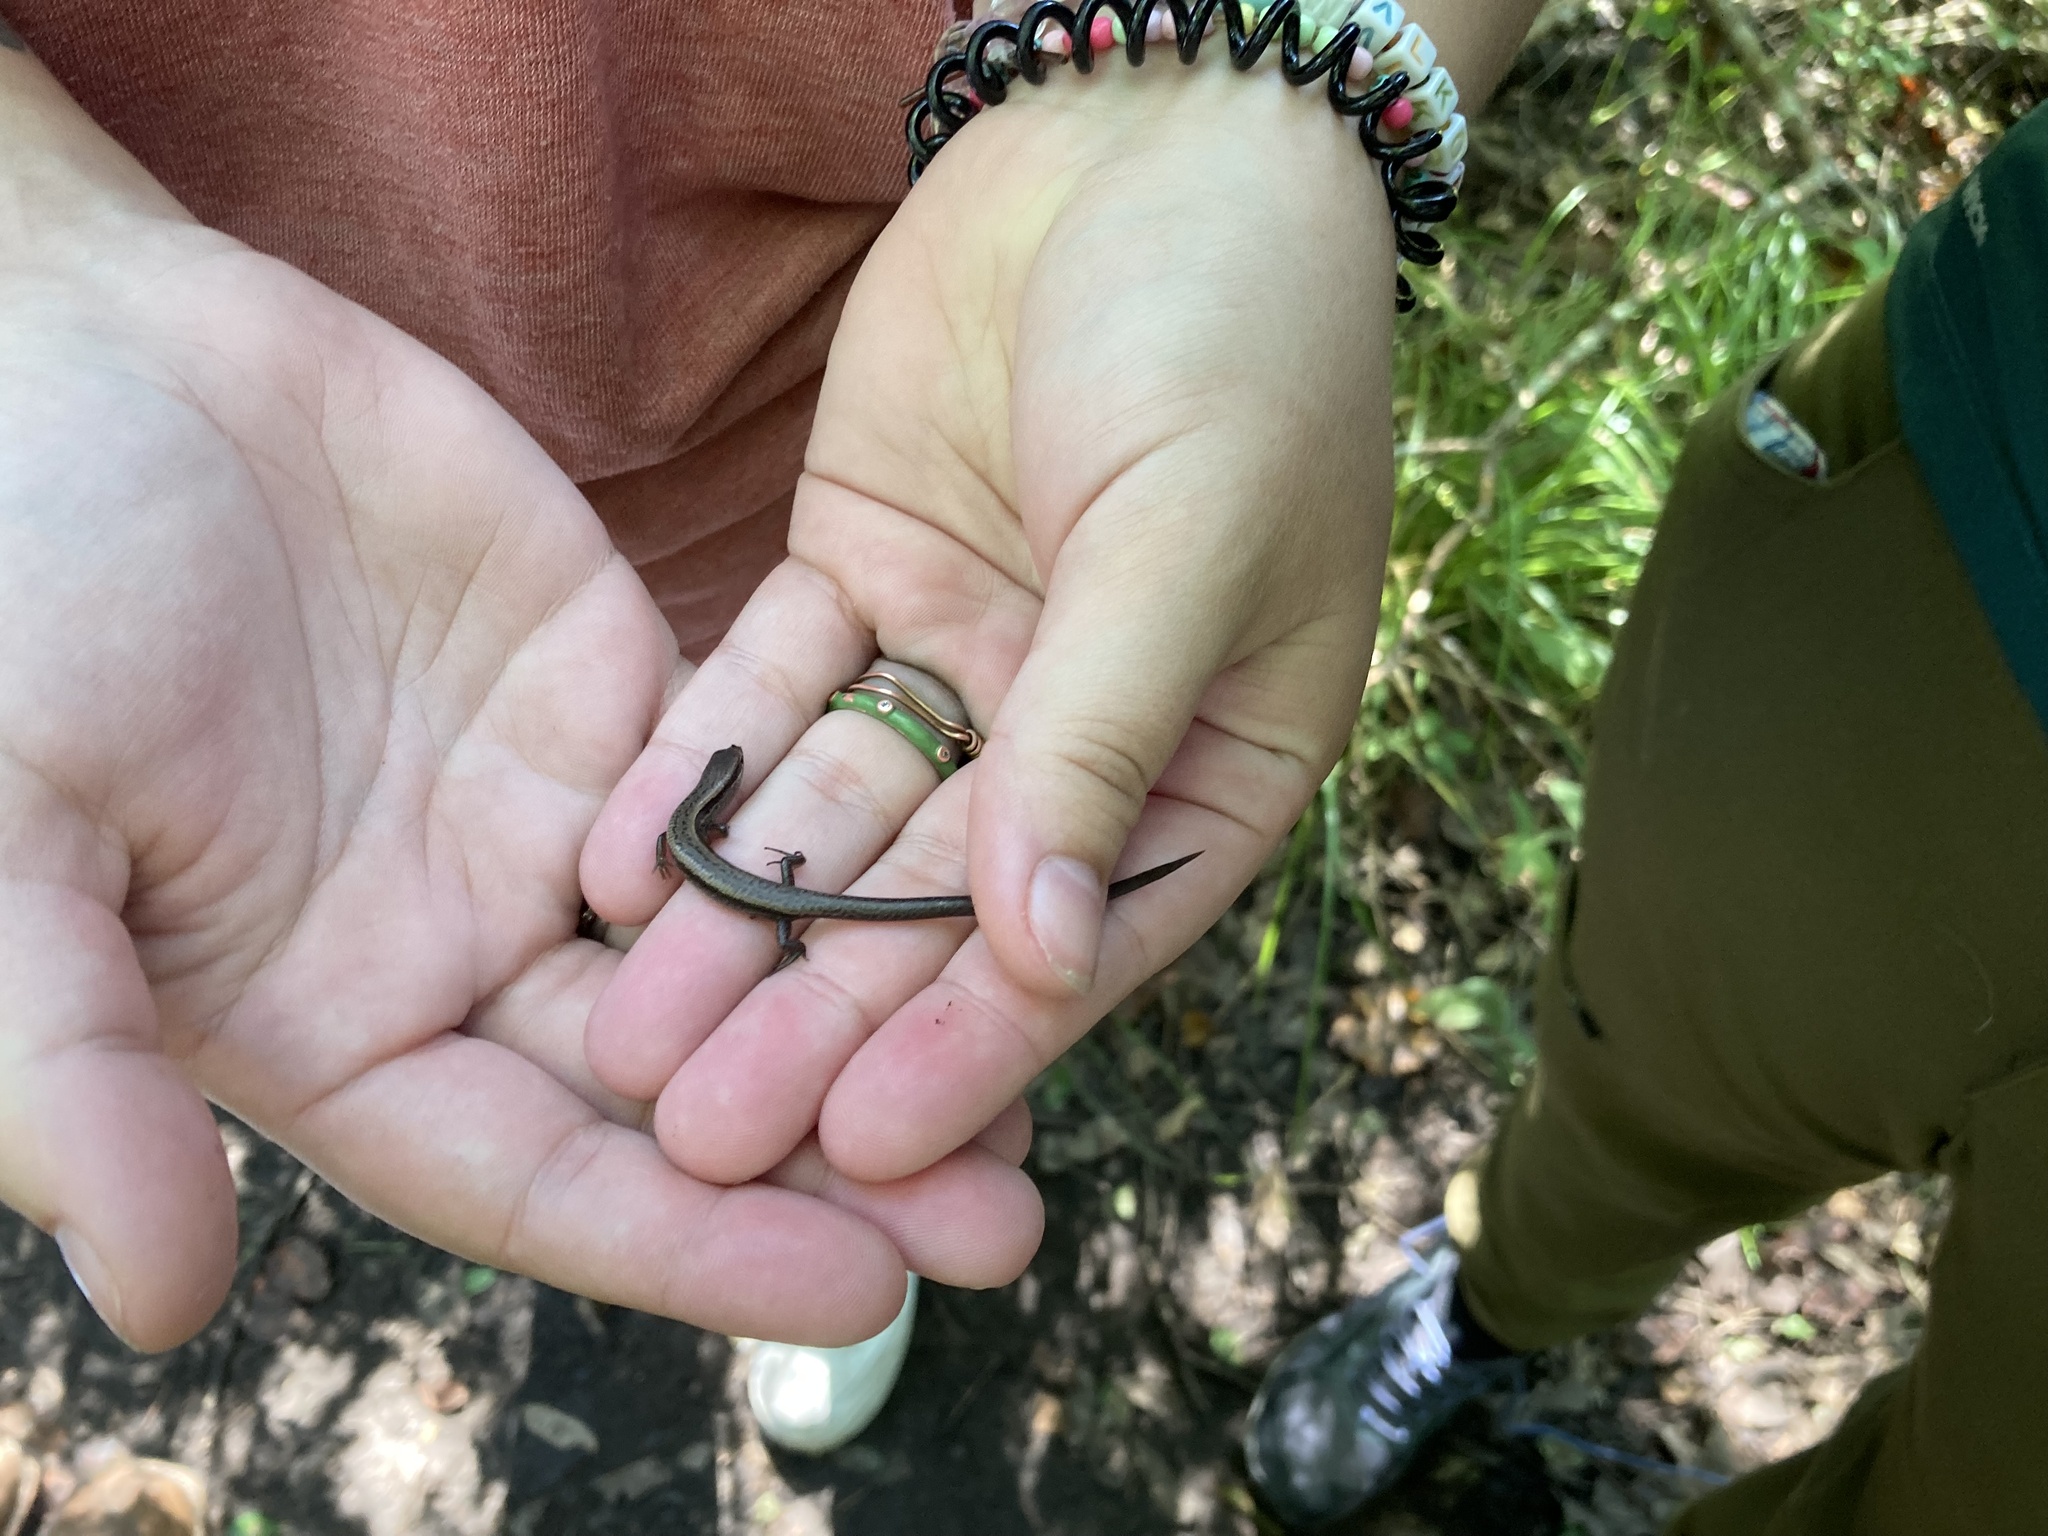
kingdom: Animalia
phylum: Chordata
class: Squamata
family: Scincidae
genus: Scincella
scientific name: Scincella lateralis
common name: Ground skink
